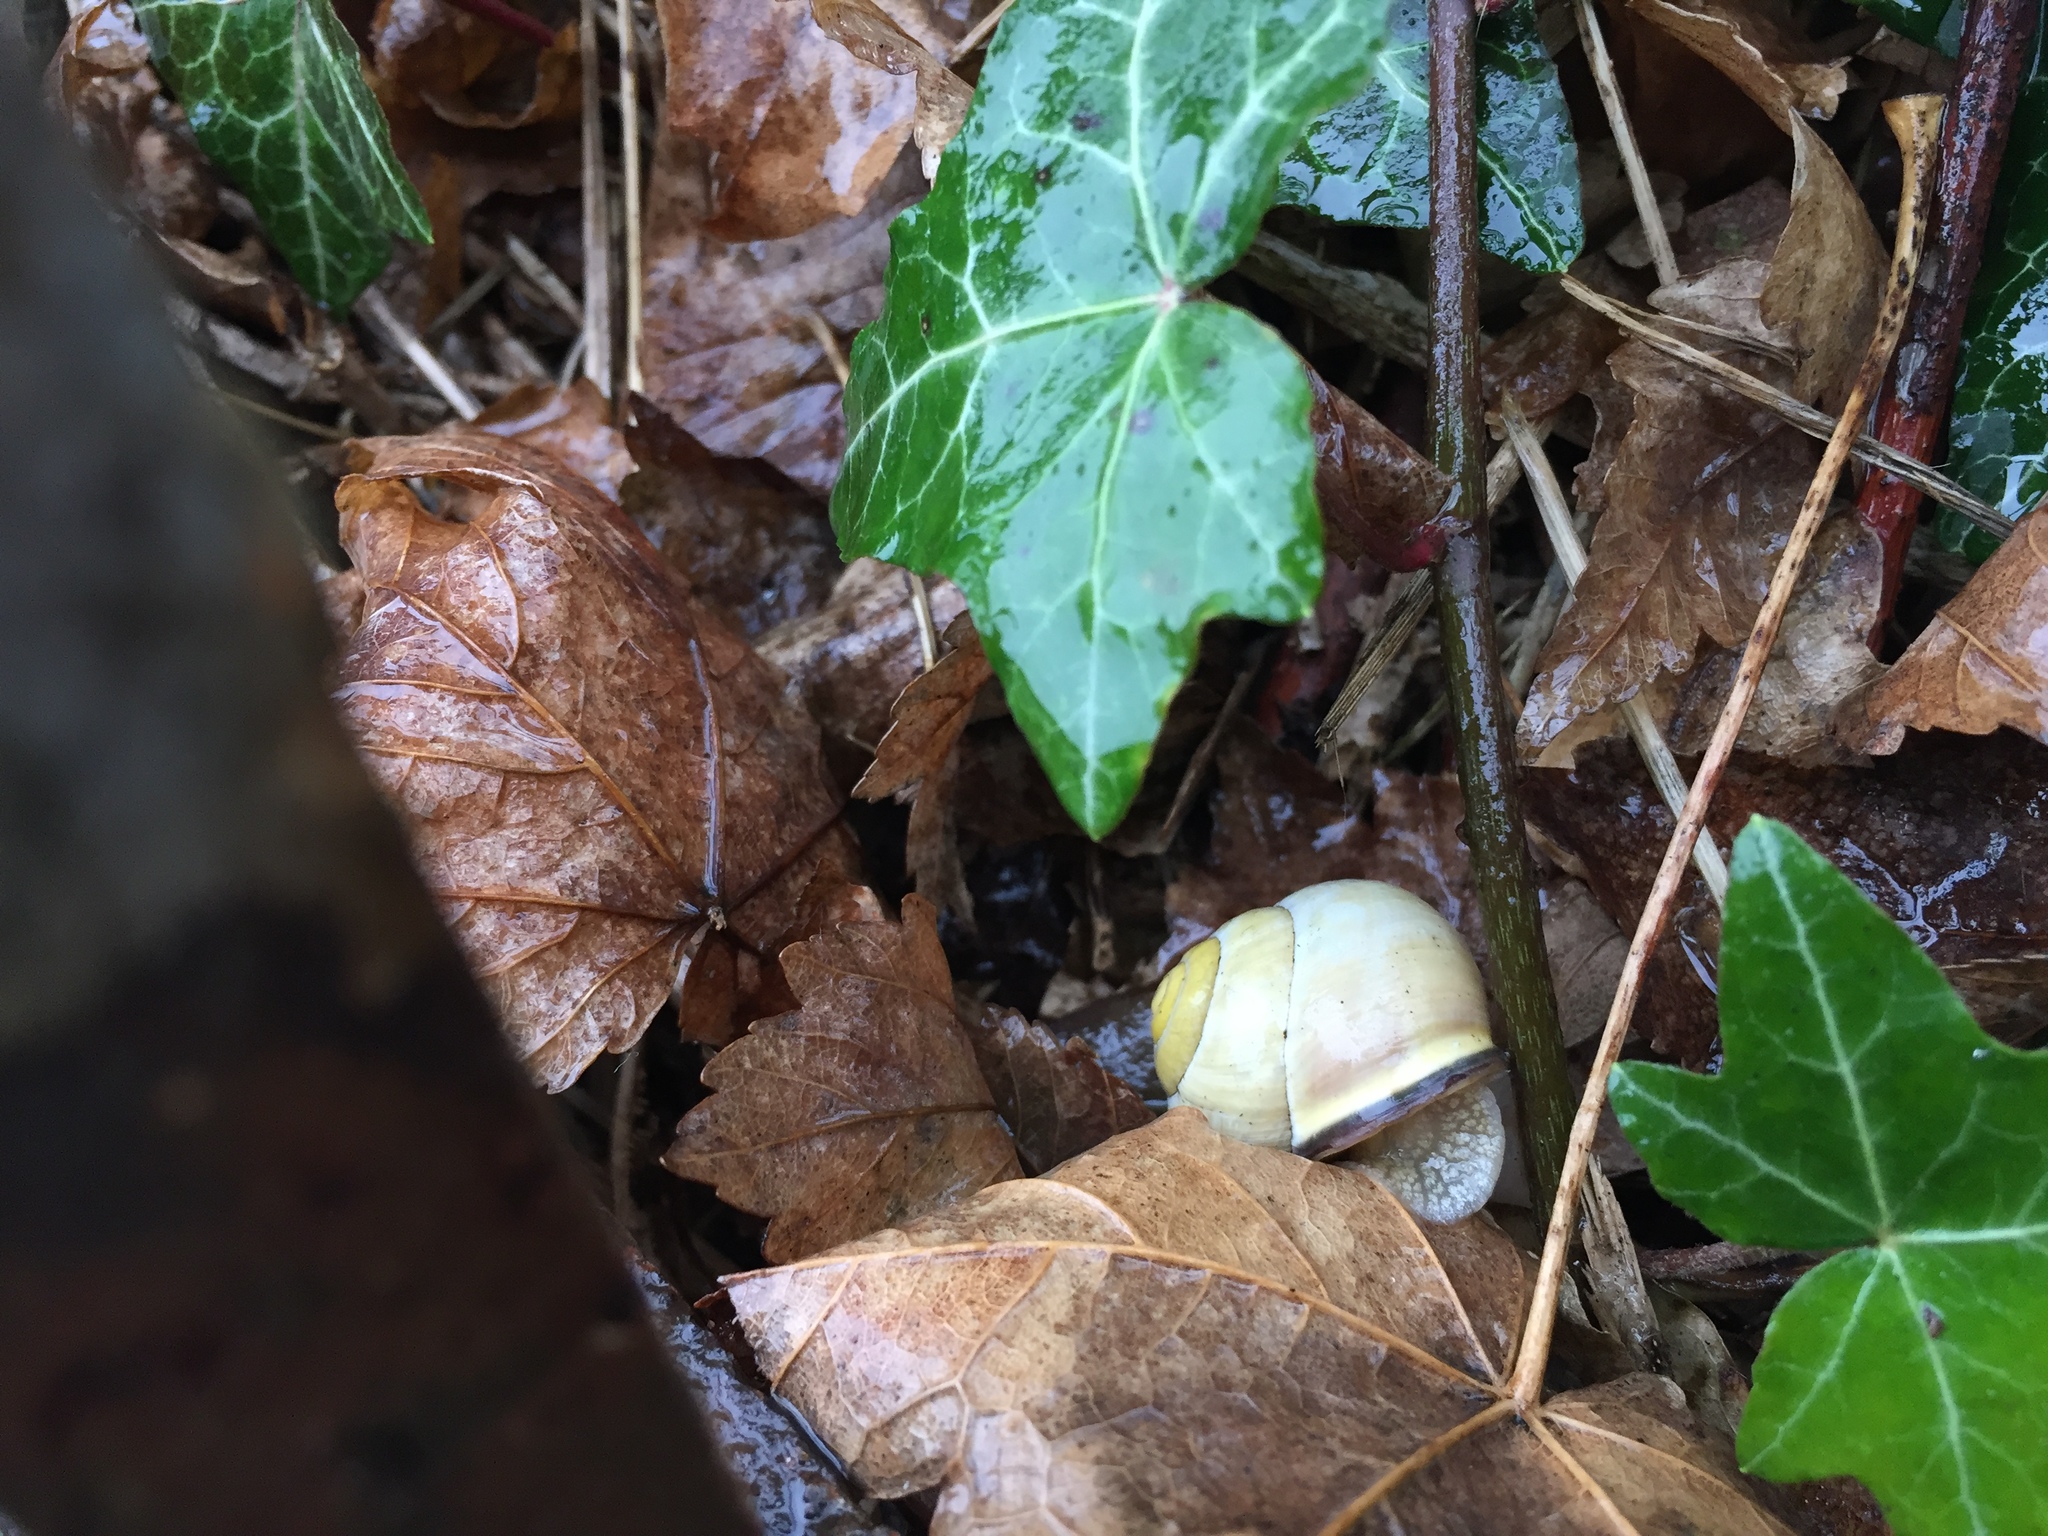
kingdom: Animalia
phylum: Mollusca
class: Gastropoda
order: Stylommatophora
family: Helicidae
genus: Cepaea
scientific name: Cepaea nemoralis
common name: Grovesnail
